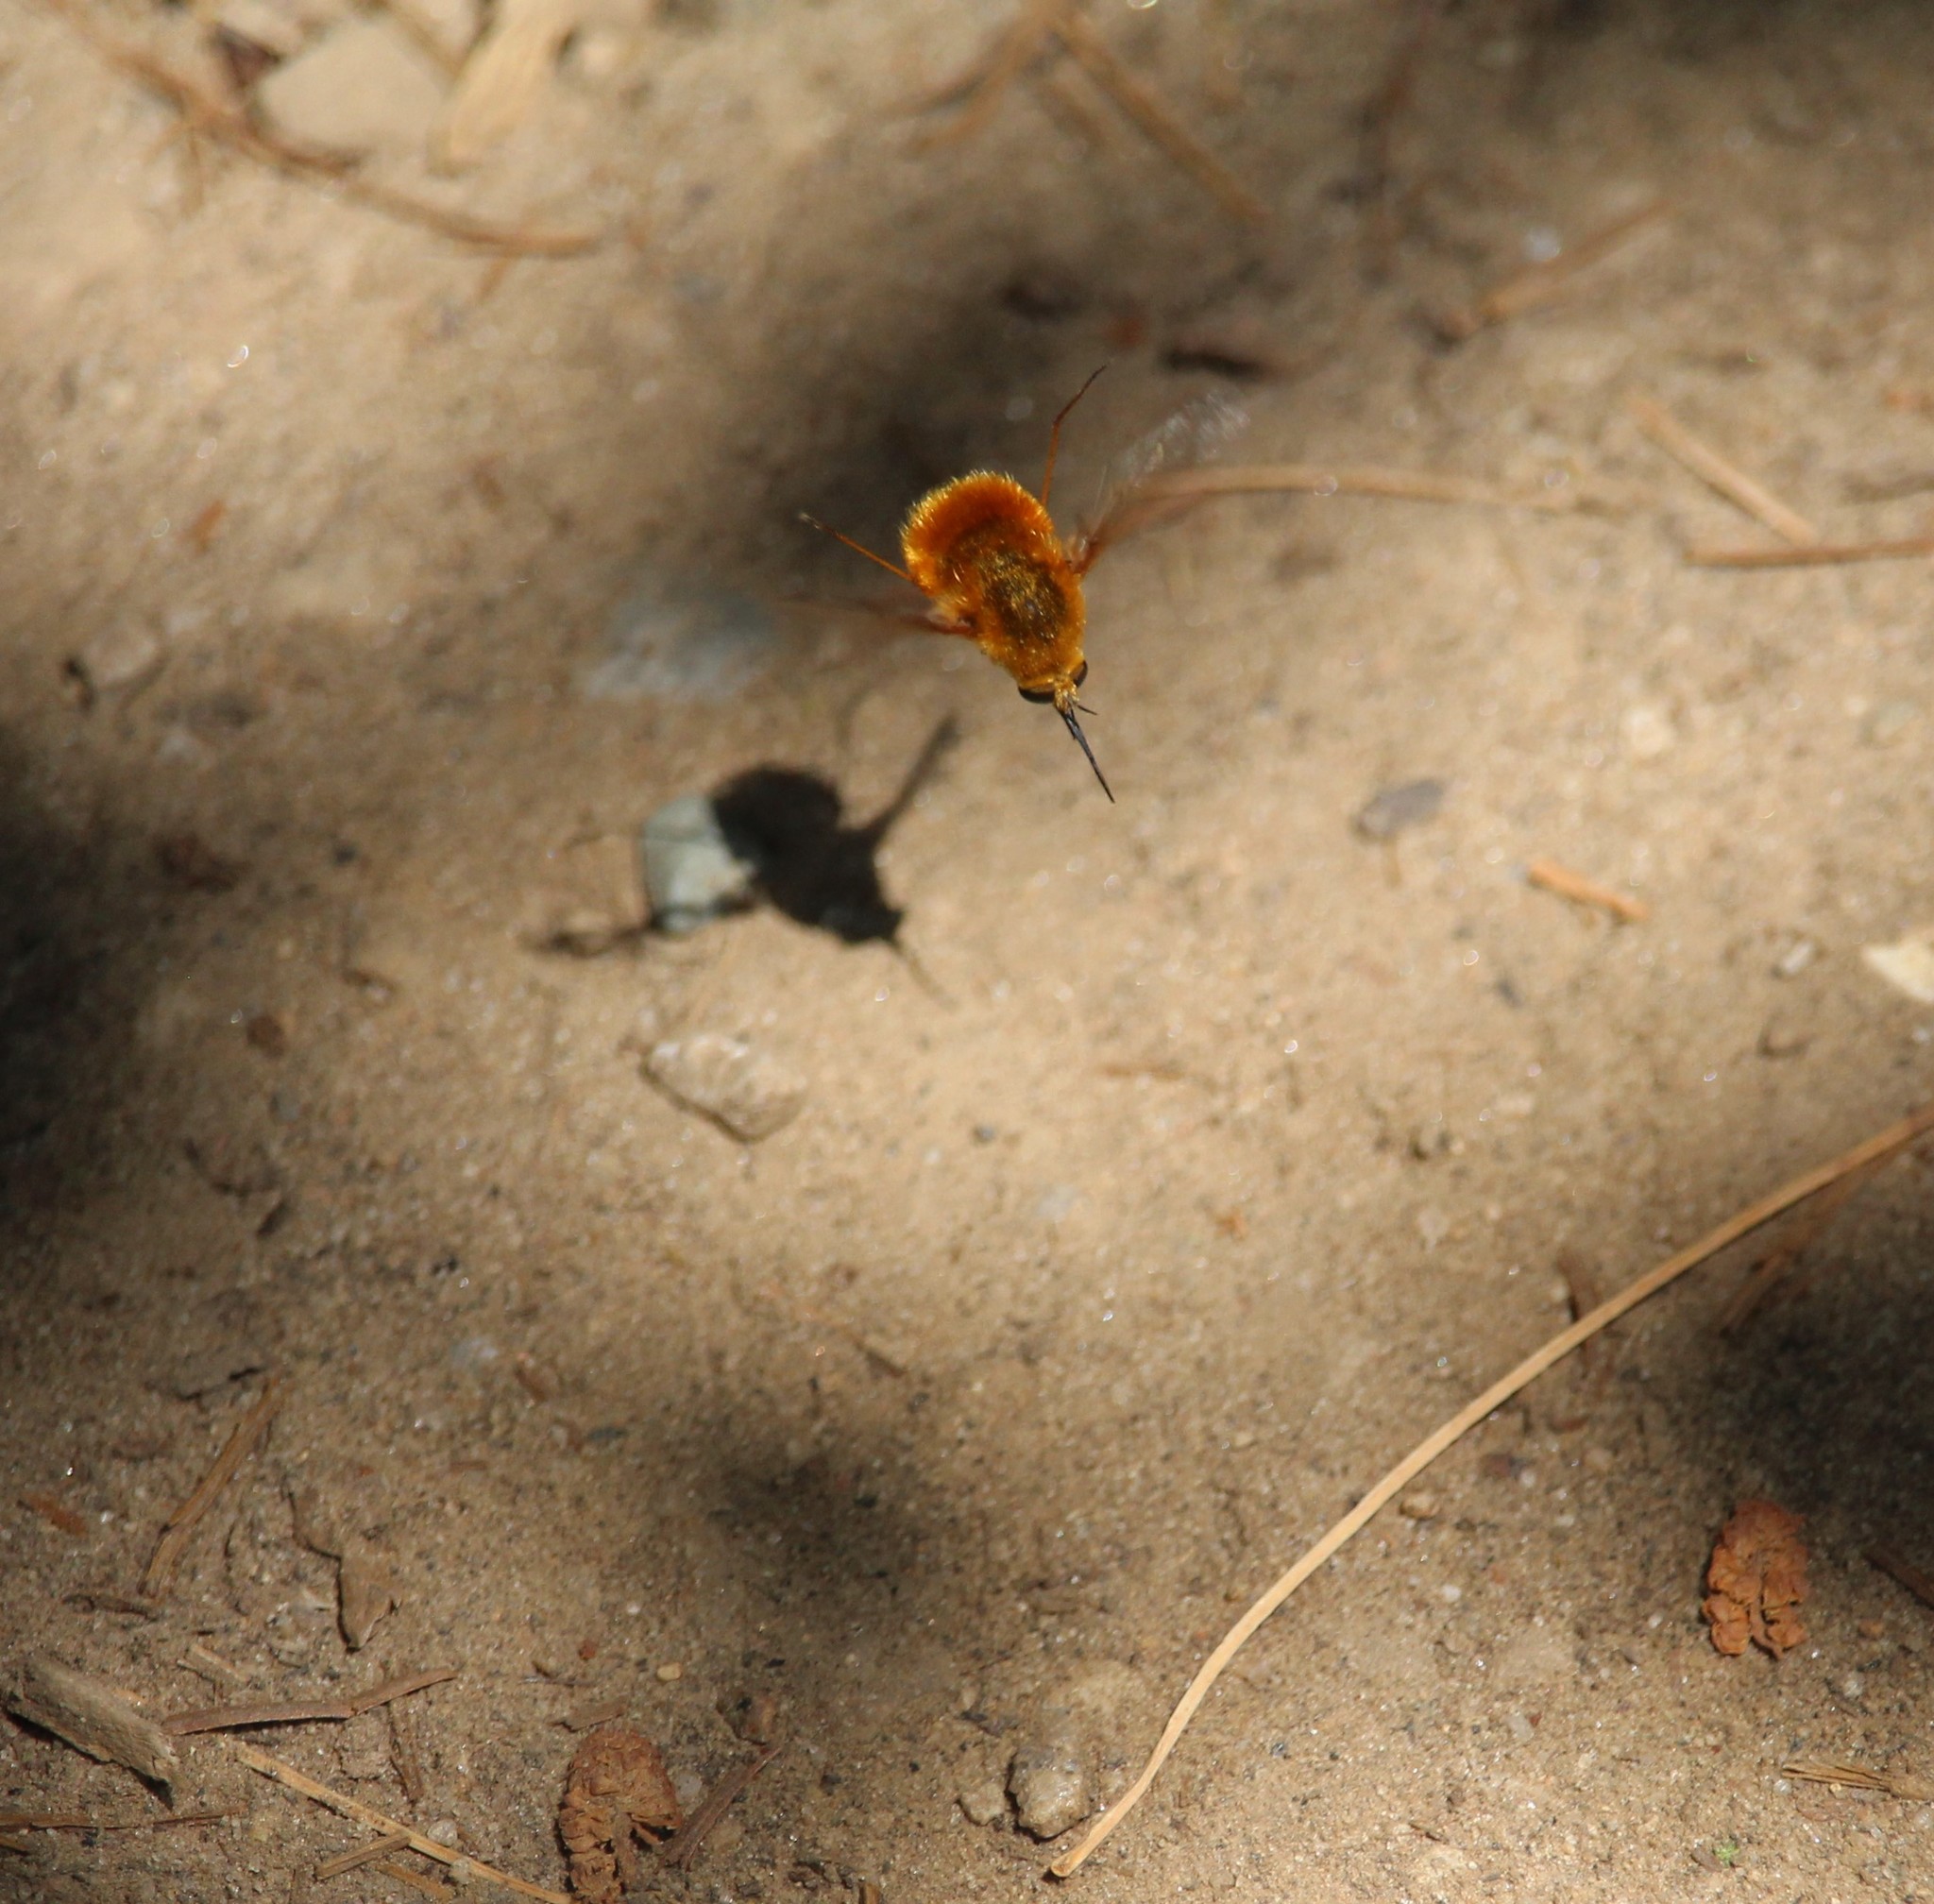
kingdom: Animalia
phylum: Arthropoda
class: Insecta
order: Diptera
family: Bombyliidae
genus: Bombylius
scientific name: Bombylius comanche
